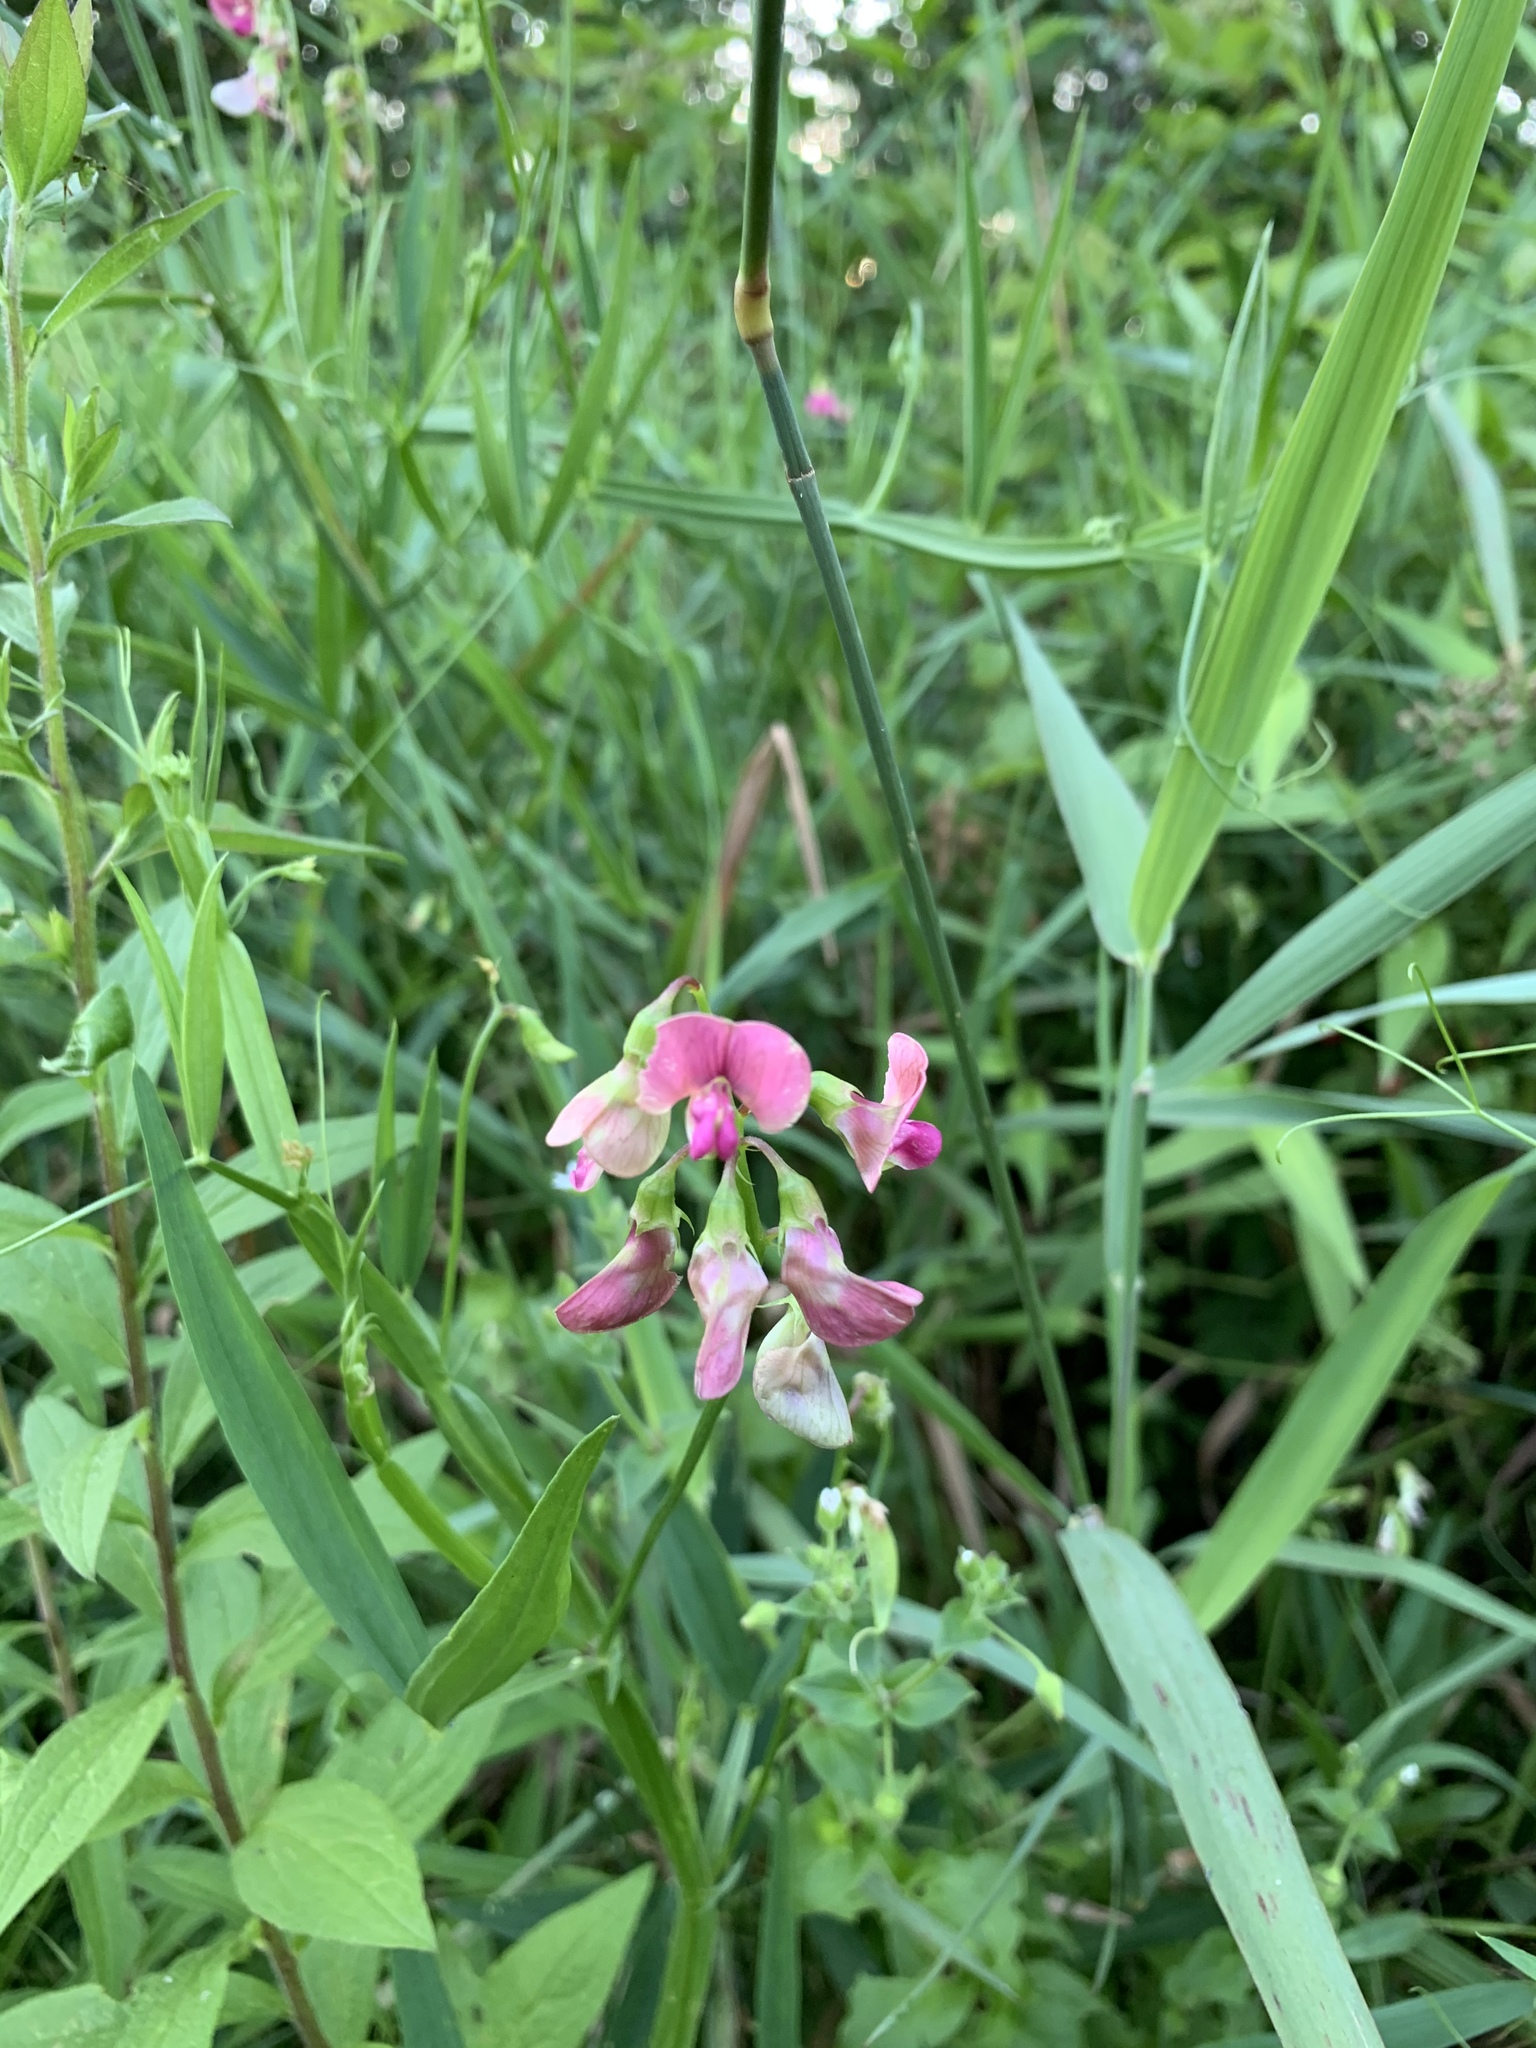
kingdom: Plantae
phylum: Tracheophyta
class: Magnoliopsida
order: Fabales
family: Fabaceae
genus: Lathyrus
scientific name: Lathyrus sylvestris
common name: Flat pea
